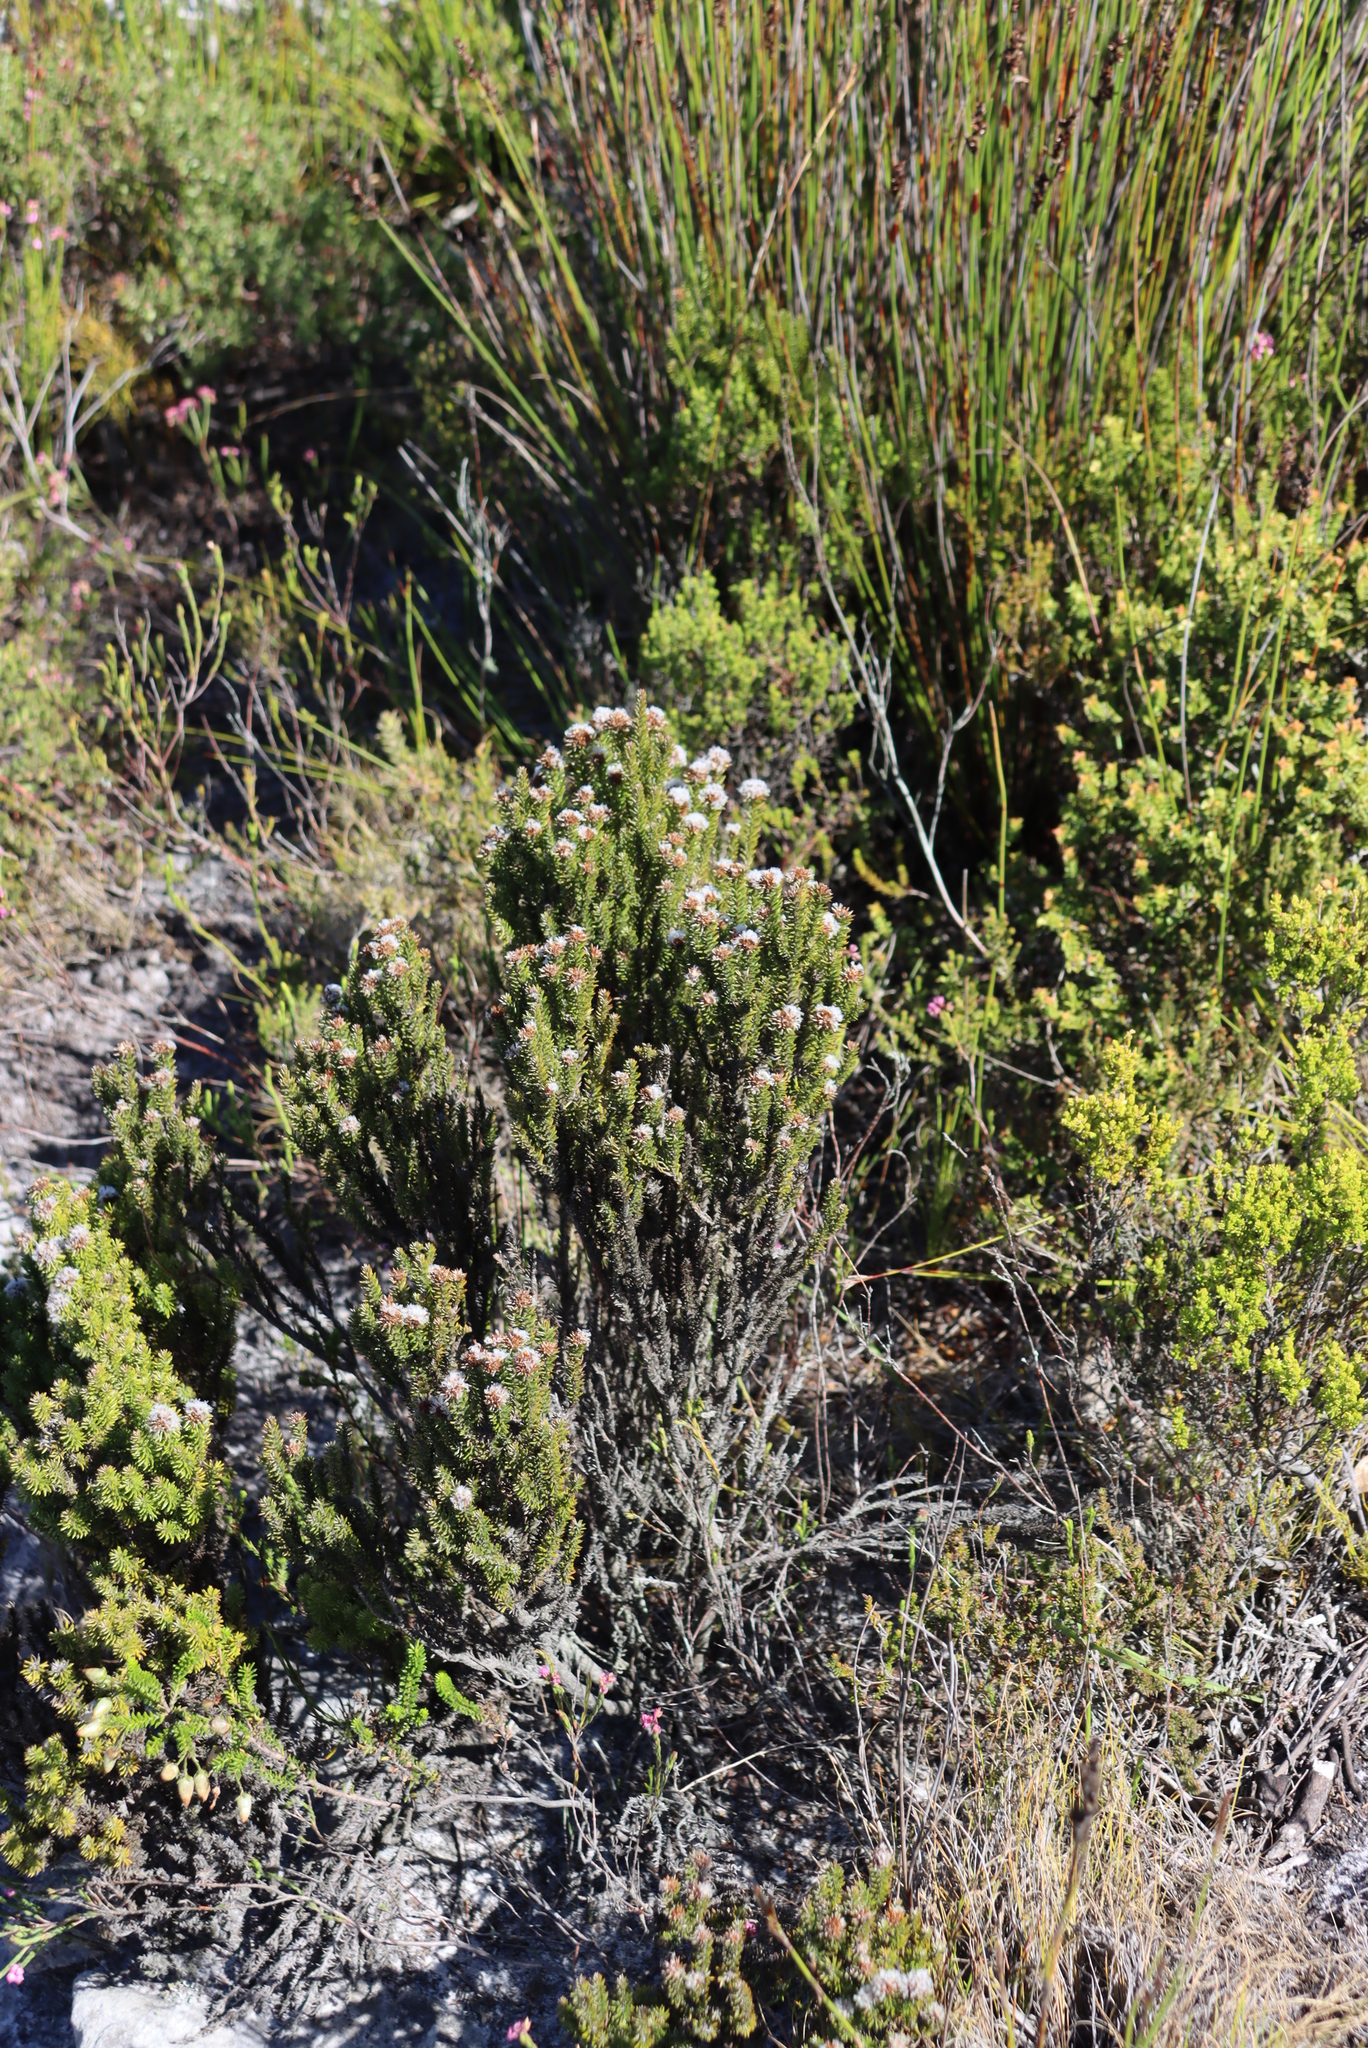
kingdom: Plantae
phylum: Tracheophyta
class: Magnoliopsida
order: Asterales
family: Asteraceae
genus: Stoebe
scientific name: Stoebe rosea
